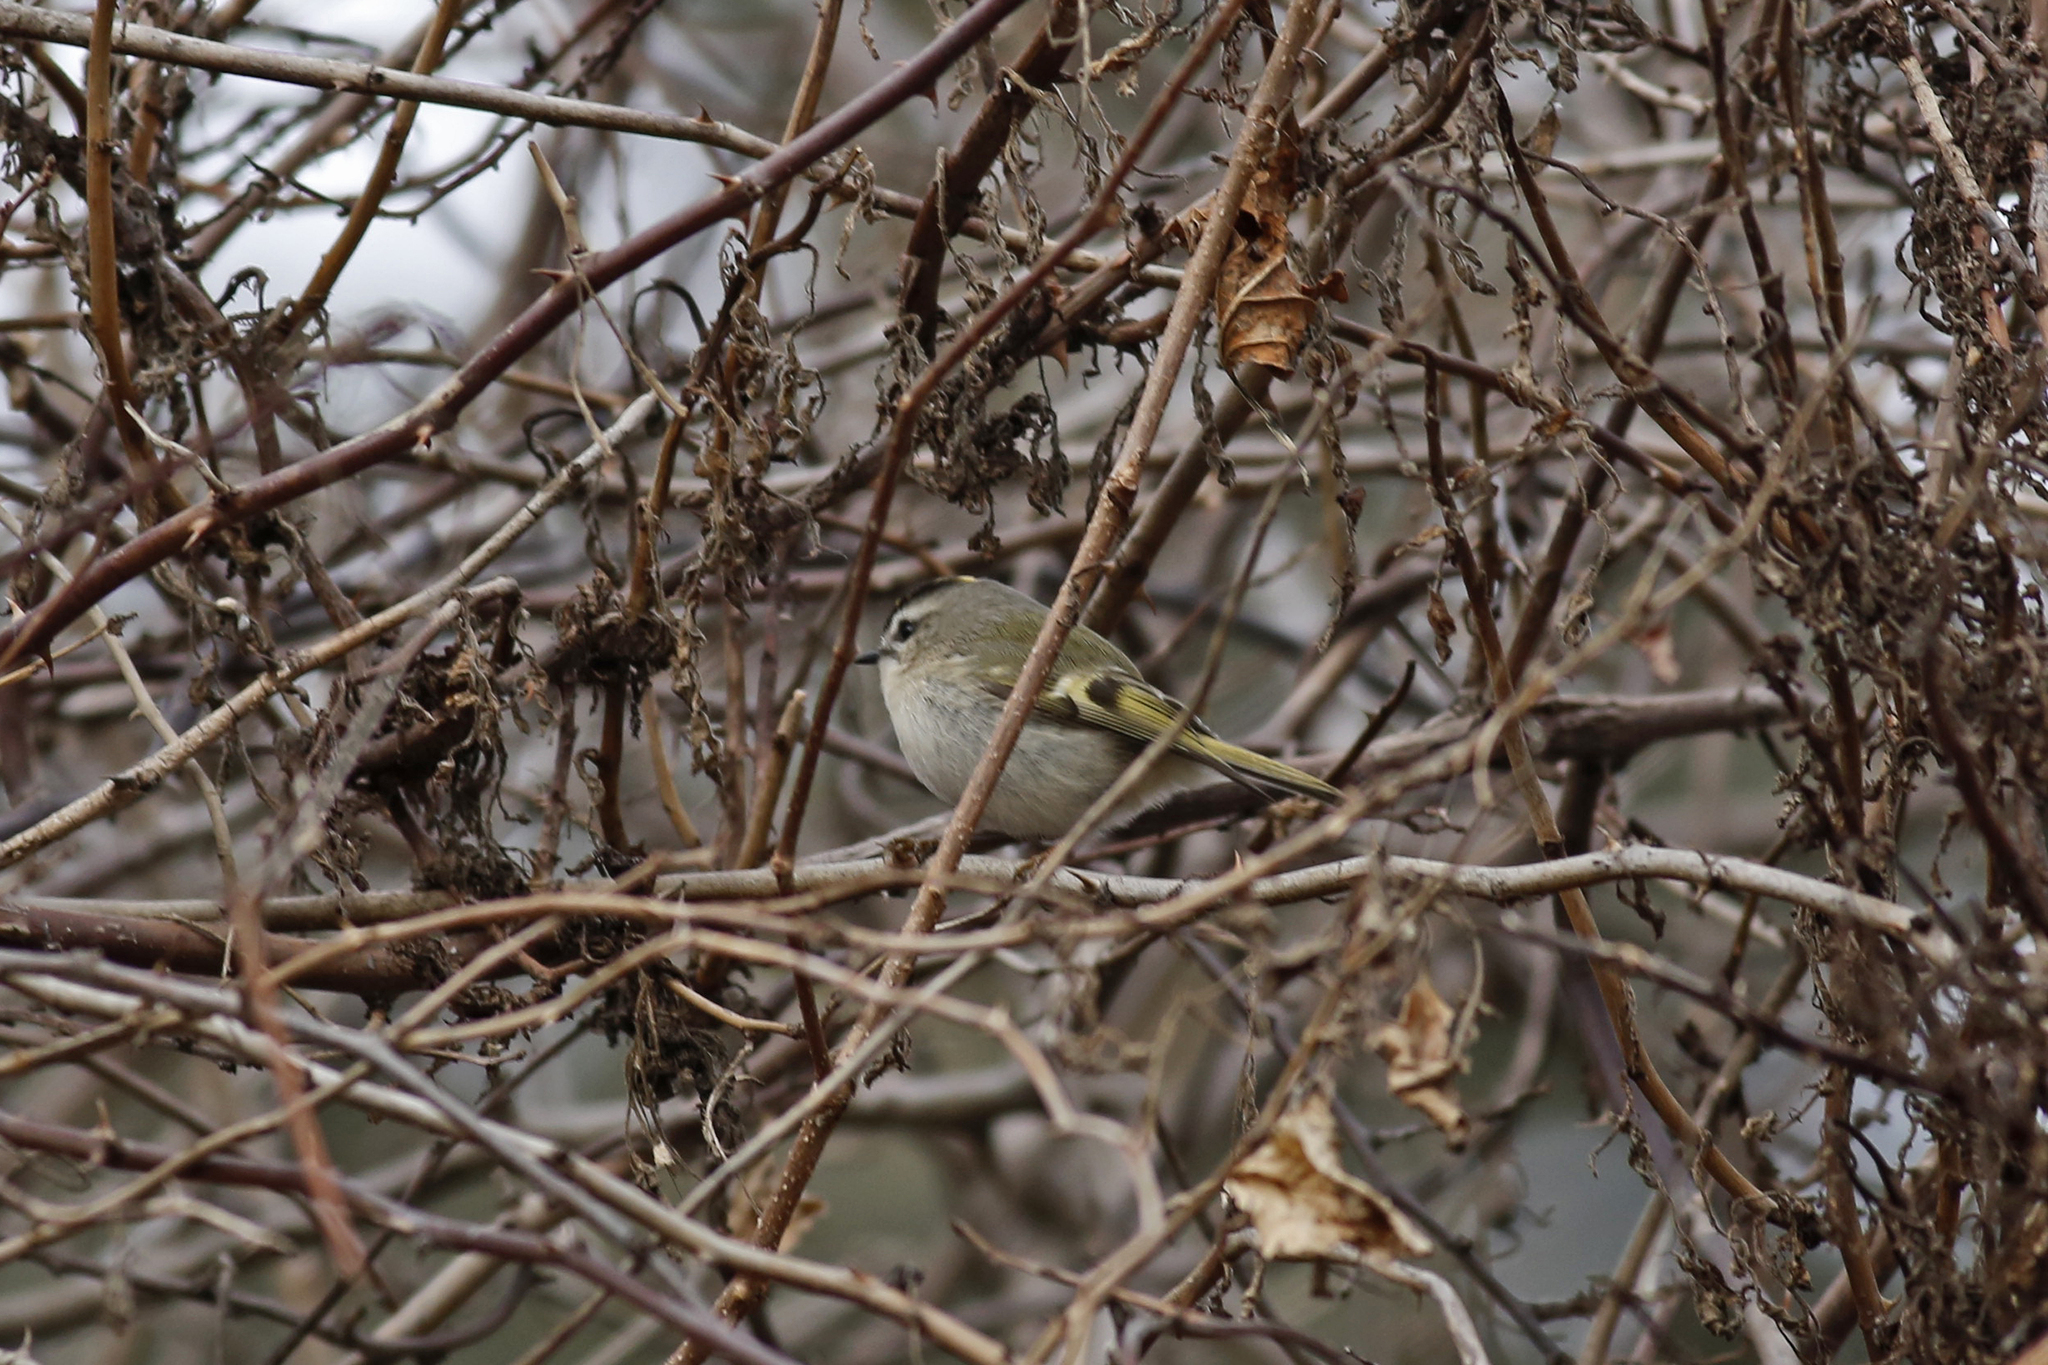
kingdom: Animalia
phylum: Chordata
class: Aves
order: Passeriformes
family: Regulidae
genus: Regulus
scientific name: Regulus satrapa
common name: Golden-crowned kinglet
